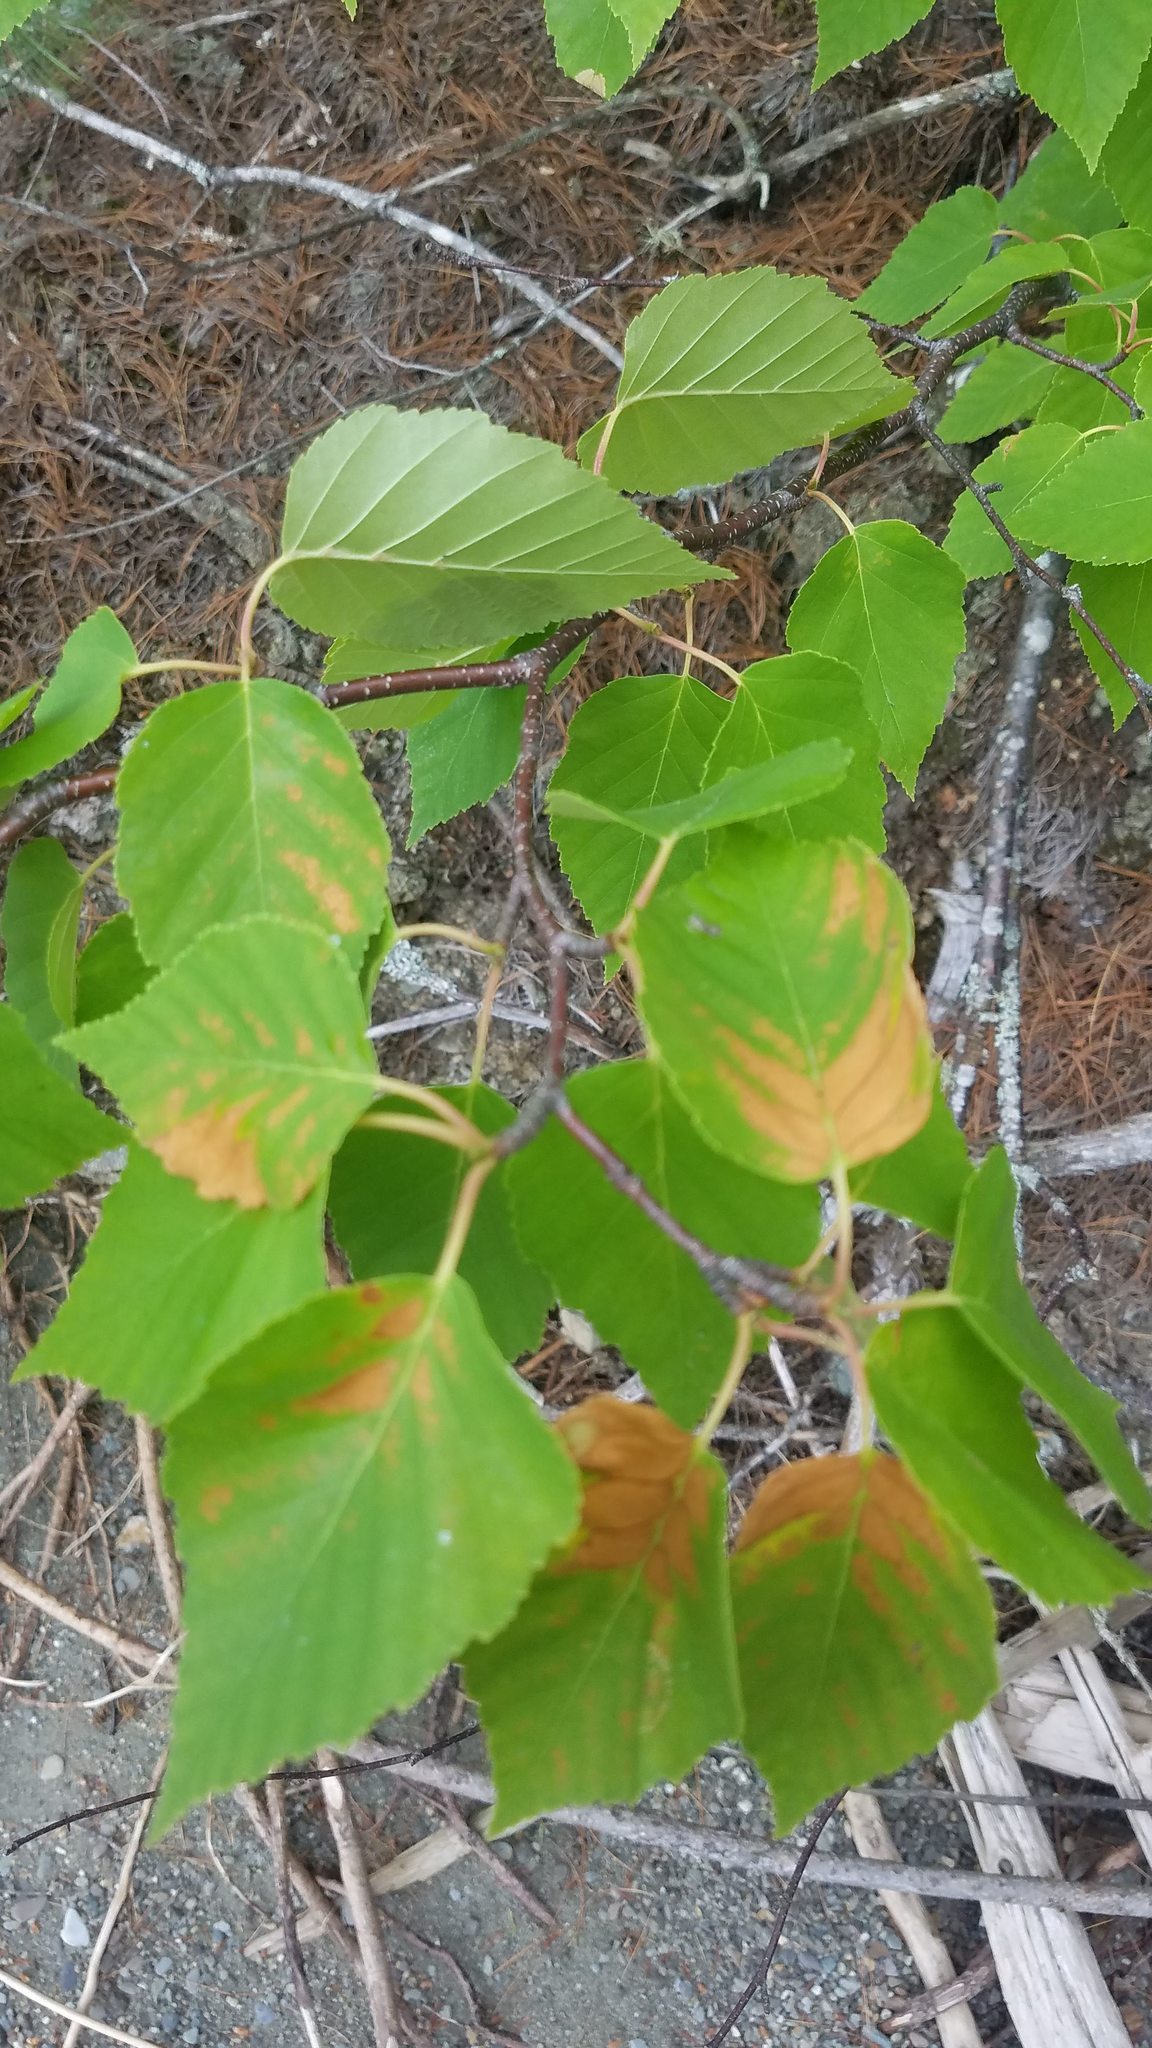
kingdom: Plantae
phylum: Tracheophyta
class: Magnoliopsida
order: Fagales
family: Betulaceae
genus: Betula
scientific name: Betula papyrifera
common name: Paper birch
